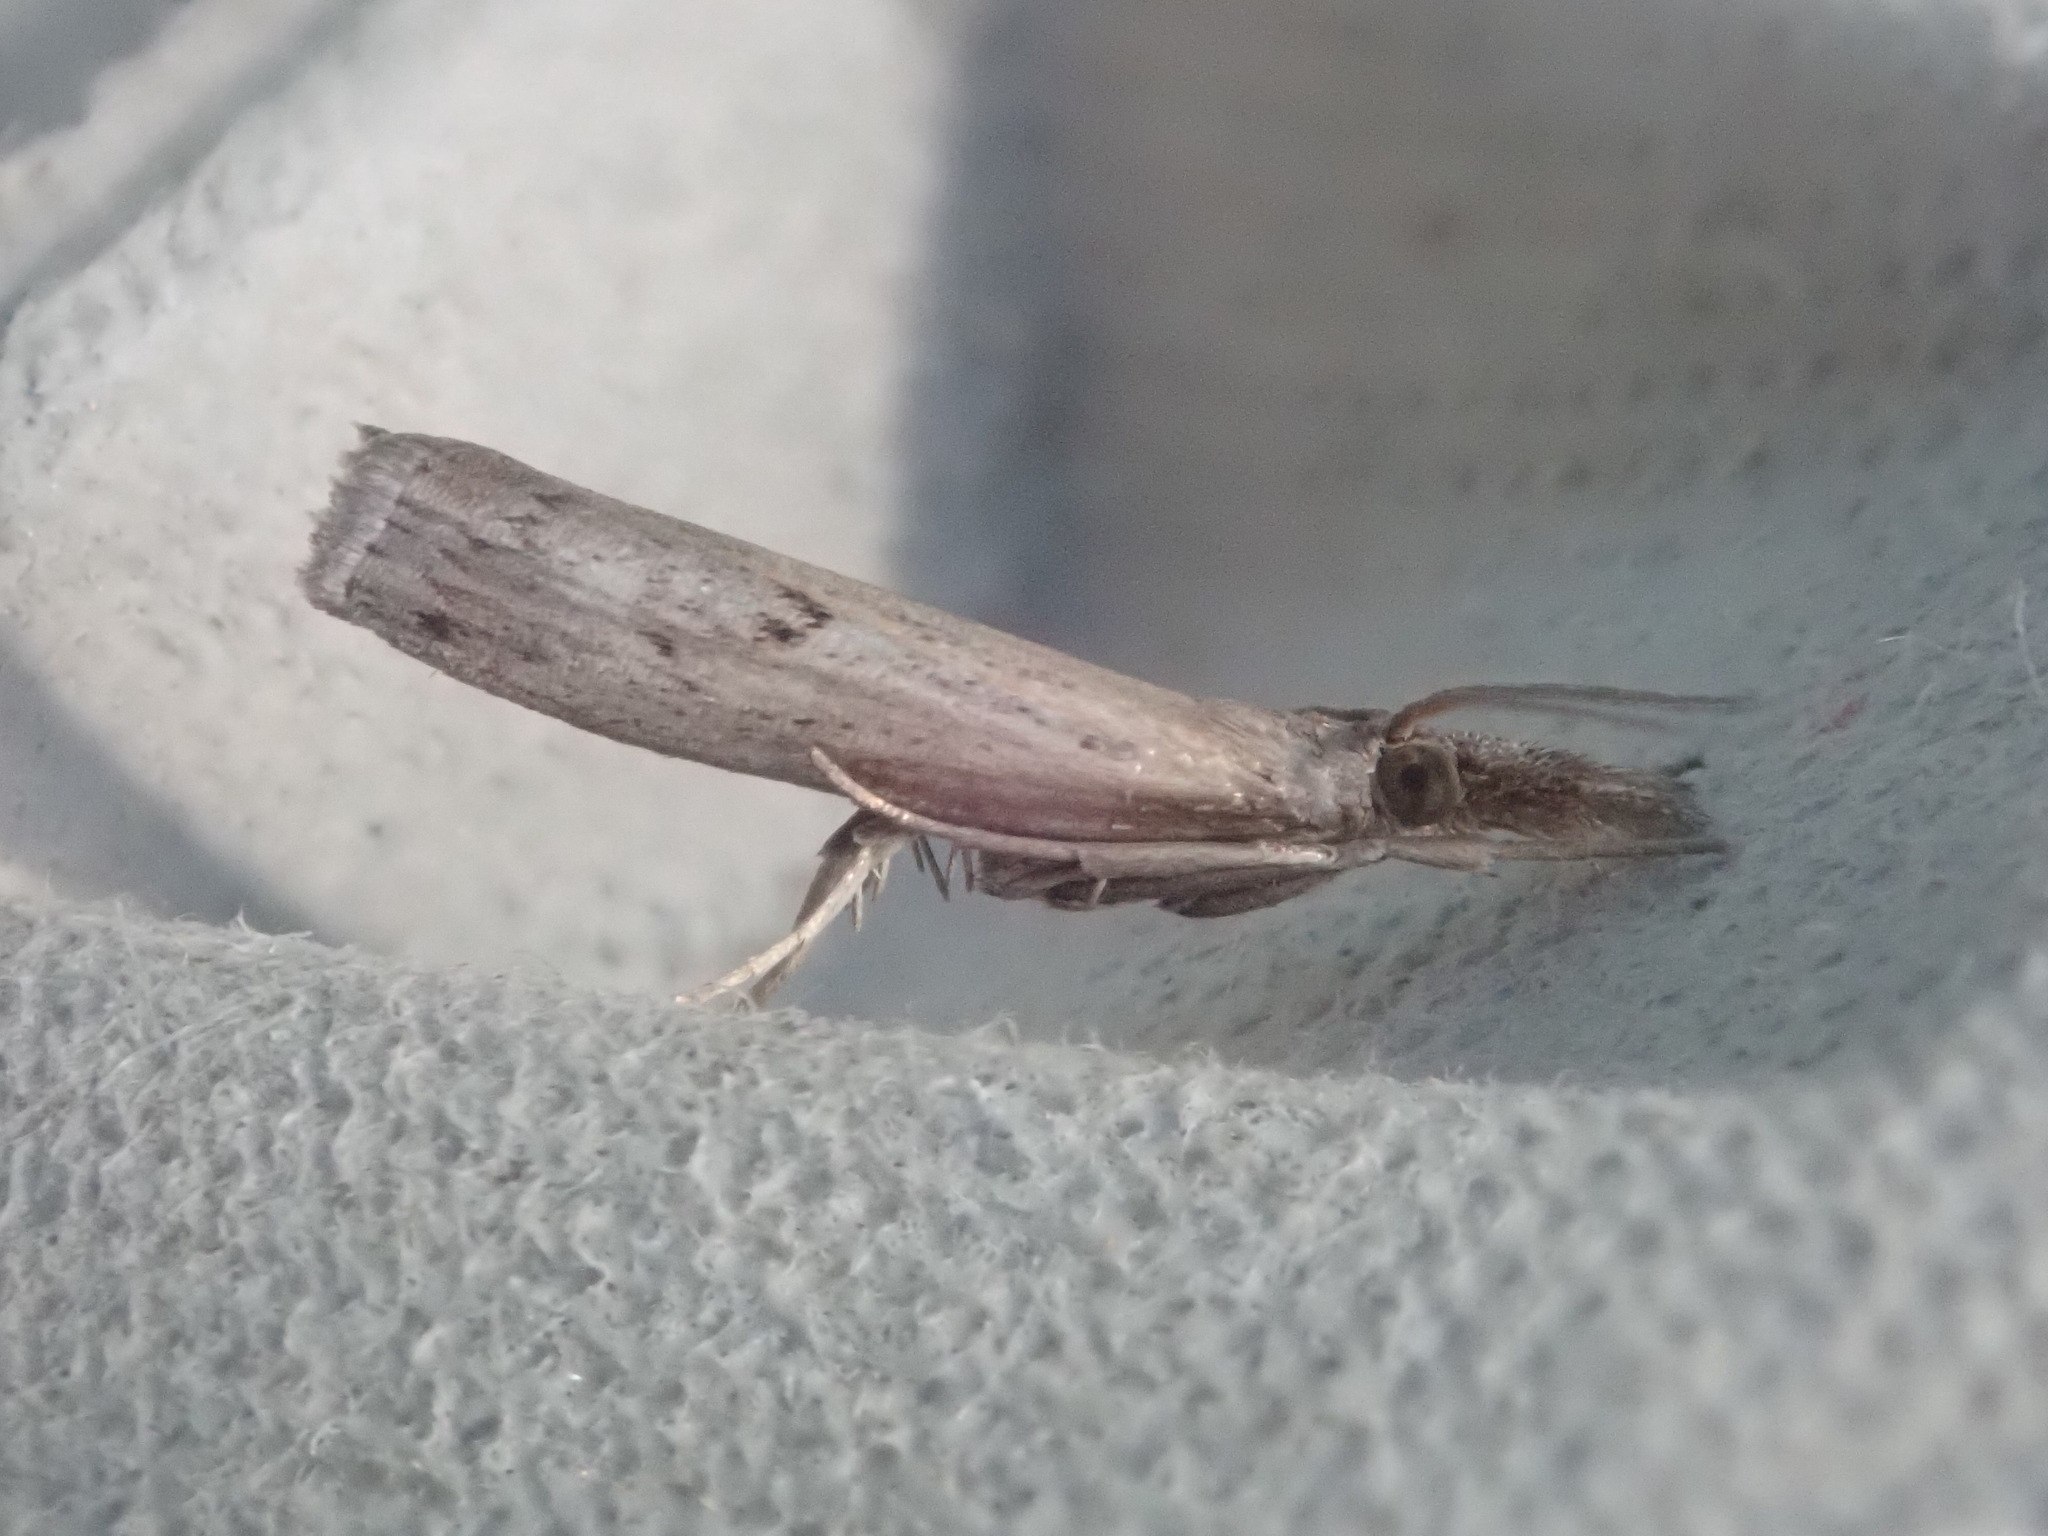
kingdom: Animalia
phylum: Arthropoda
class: Insecta
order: Lepidoptera
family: Crambidae
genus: Fissicrambus
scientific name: Fissicrambus mutabilis
